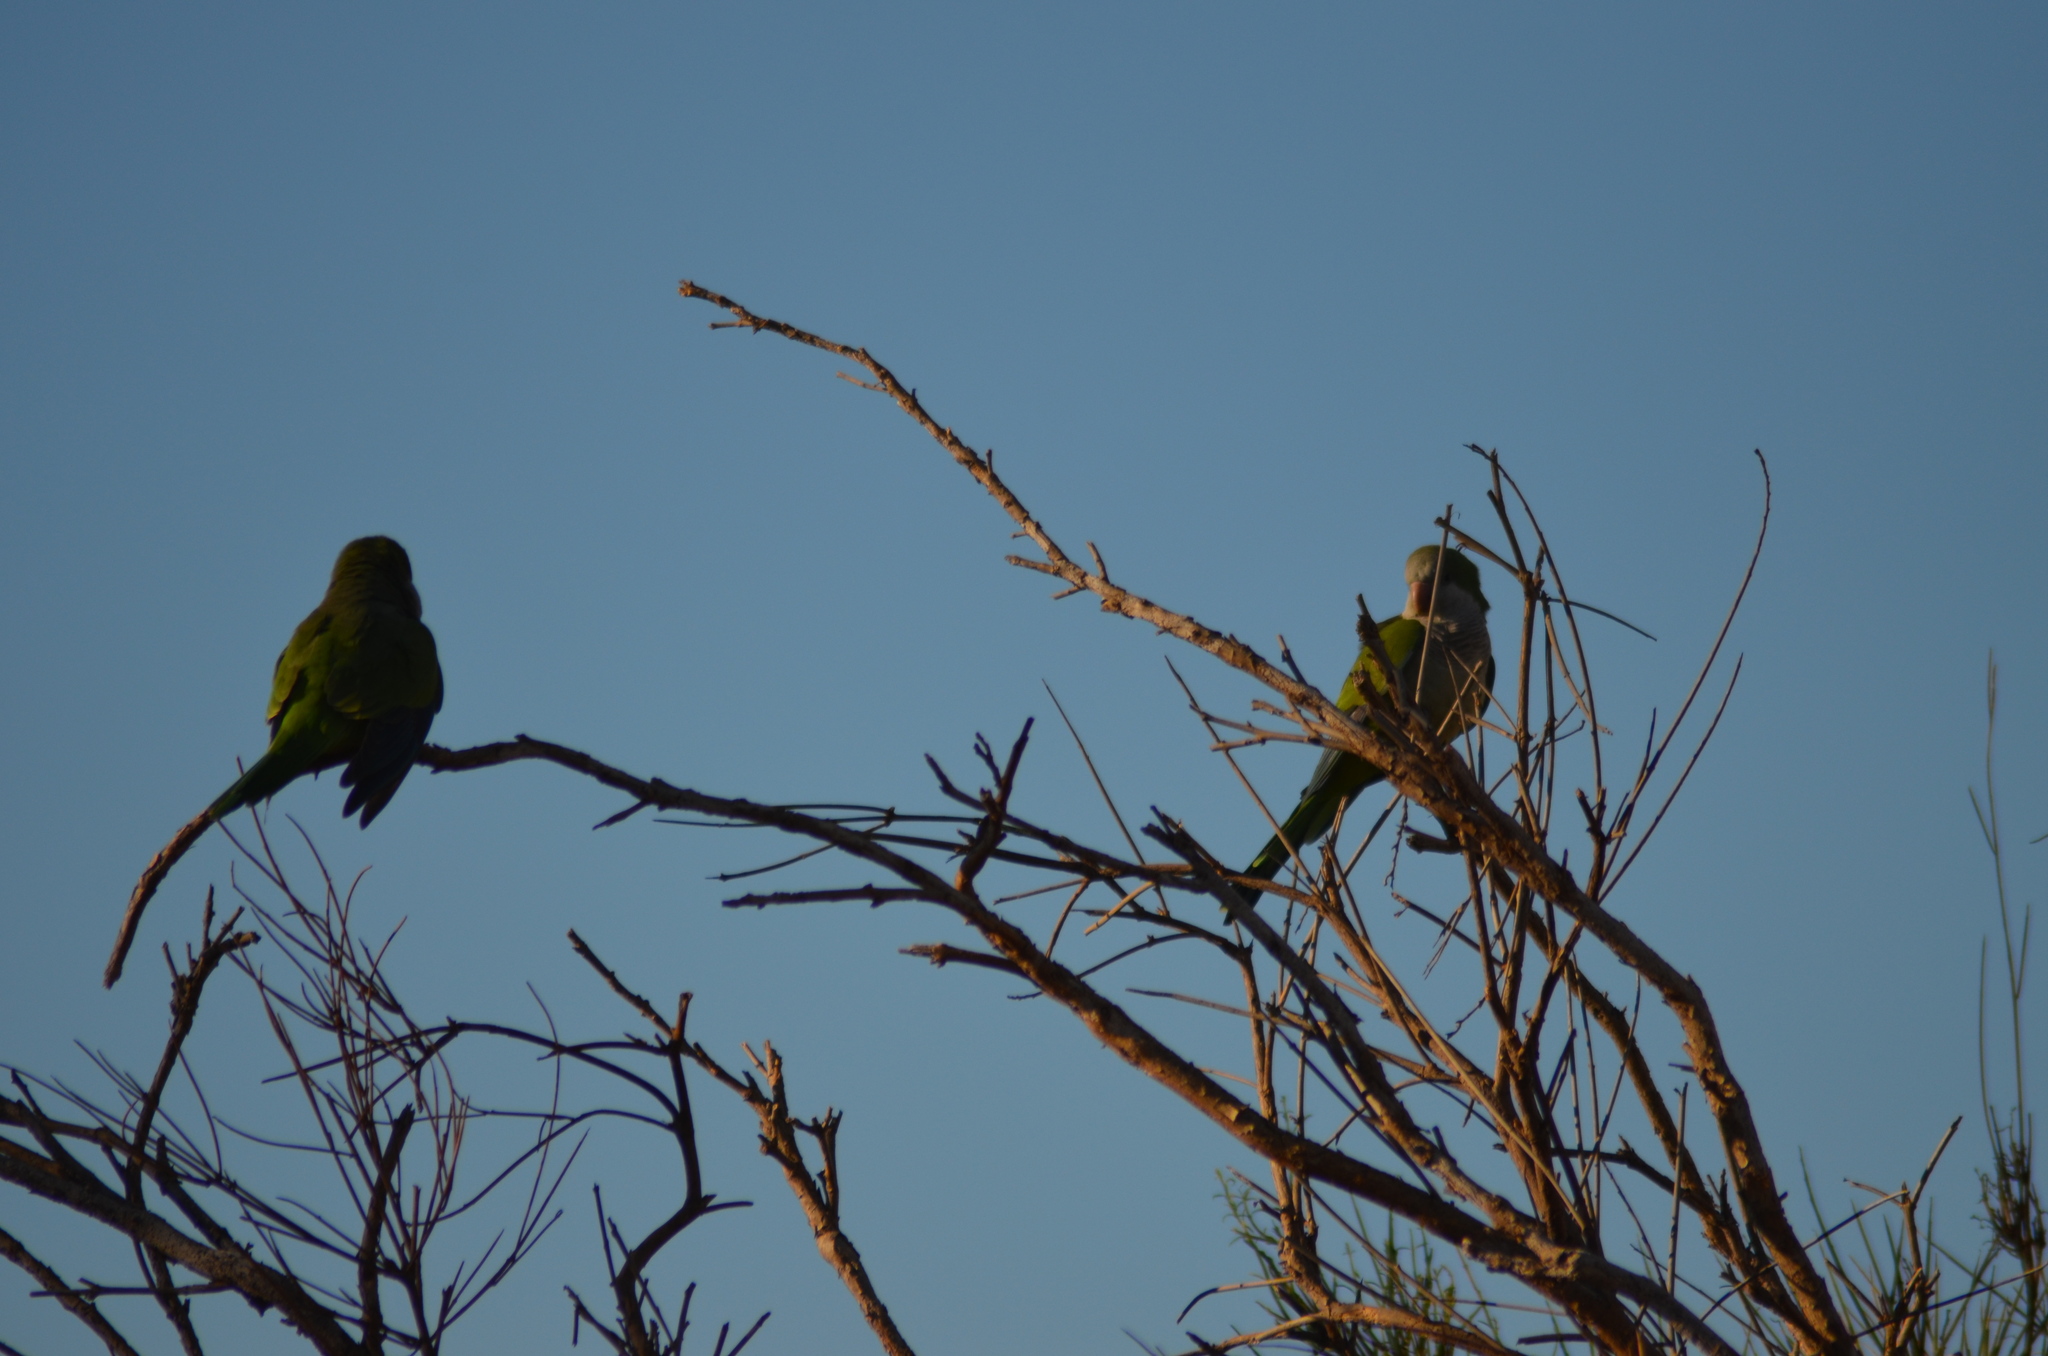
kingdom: Animalia
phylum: Chordata
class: Aves
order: Psittaciformes
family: Psittacidae
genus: Myiopsitta
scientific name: Myiopsitta monachus
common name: Monk parakeet
